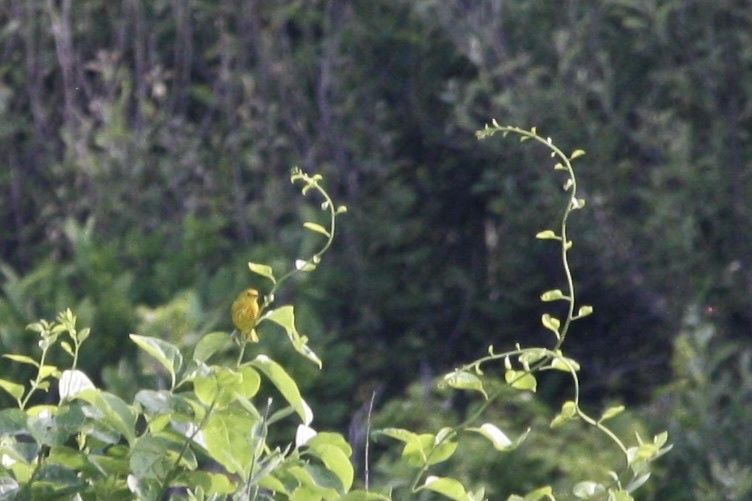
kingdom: Animalia
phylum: Chordata
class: Aves
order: Passeriformes
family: Parulidae
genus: Setophaga
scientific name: Setophaga petechia
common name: Yellow warbler
